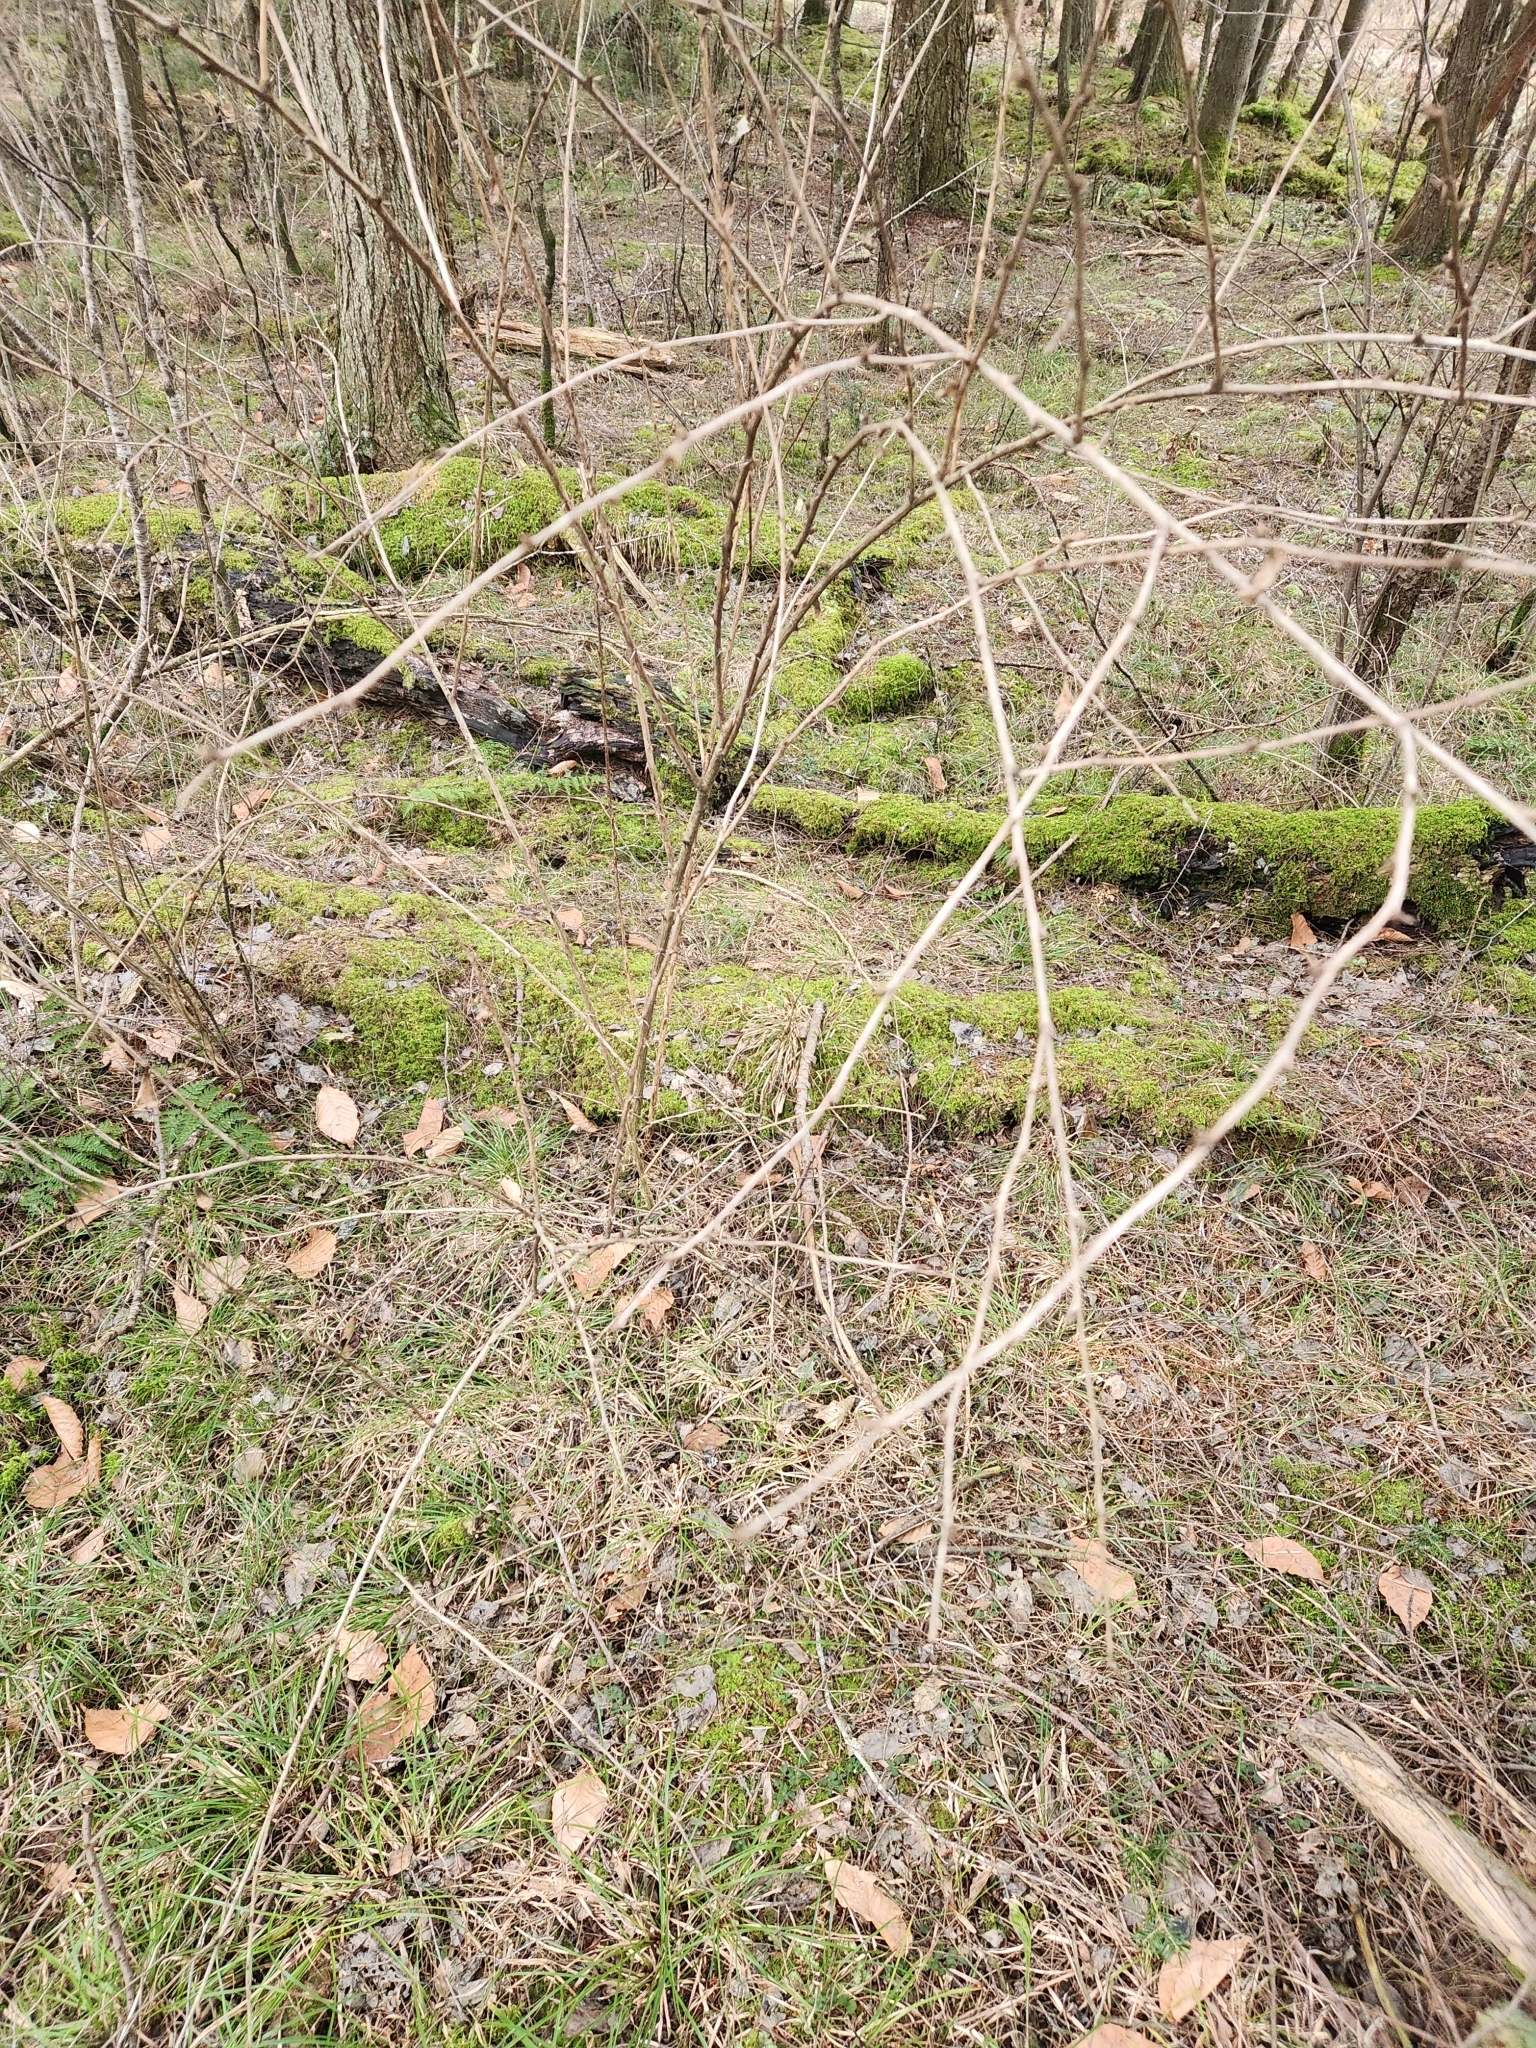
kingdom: Plantae
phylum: Tracheophyta
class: Magnoliopsida
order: Ranunculales
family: Berberidaceae
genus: Berberis
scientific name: Berberis vulgaris
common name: Barberry
